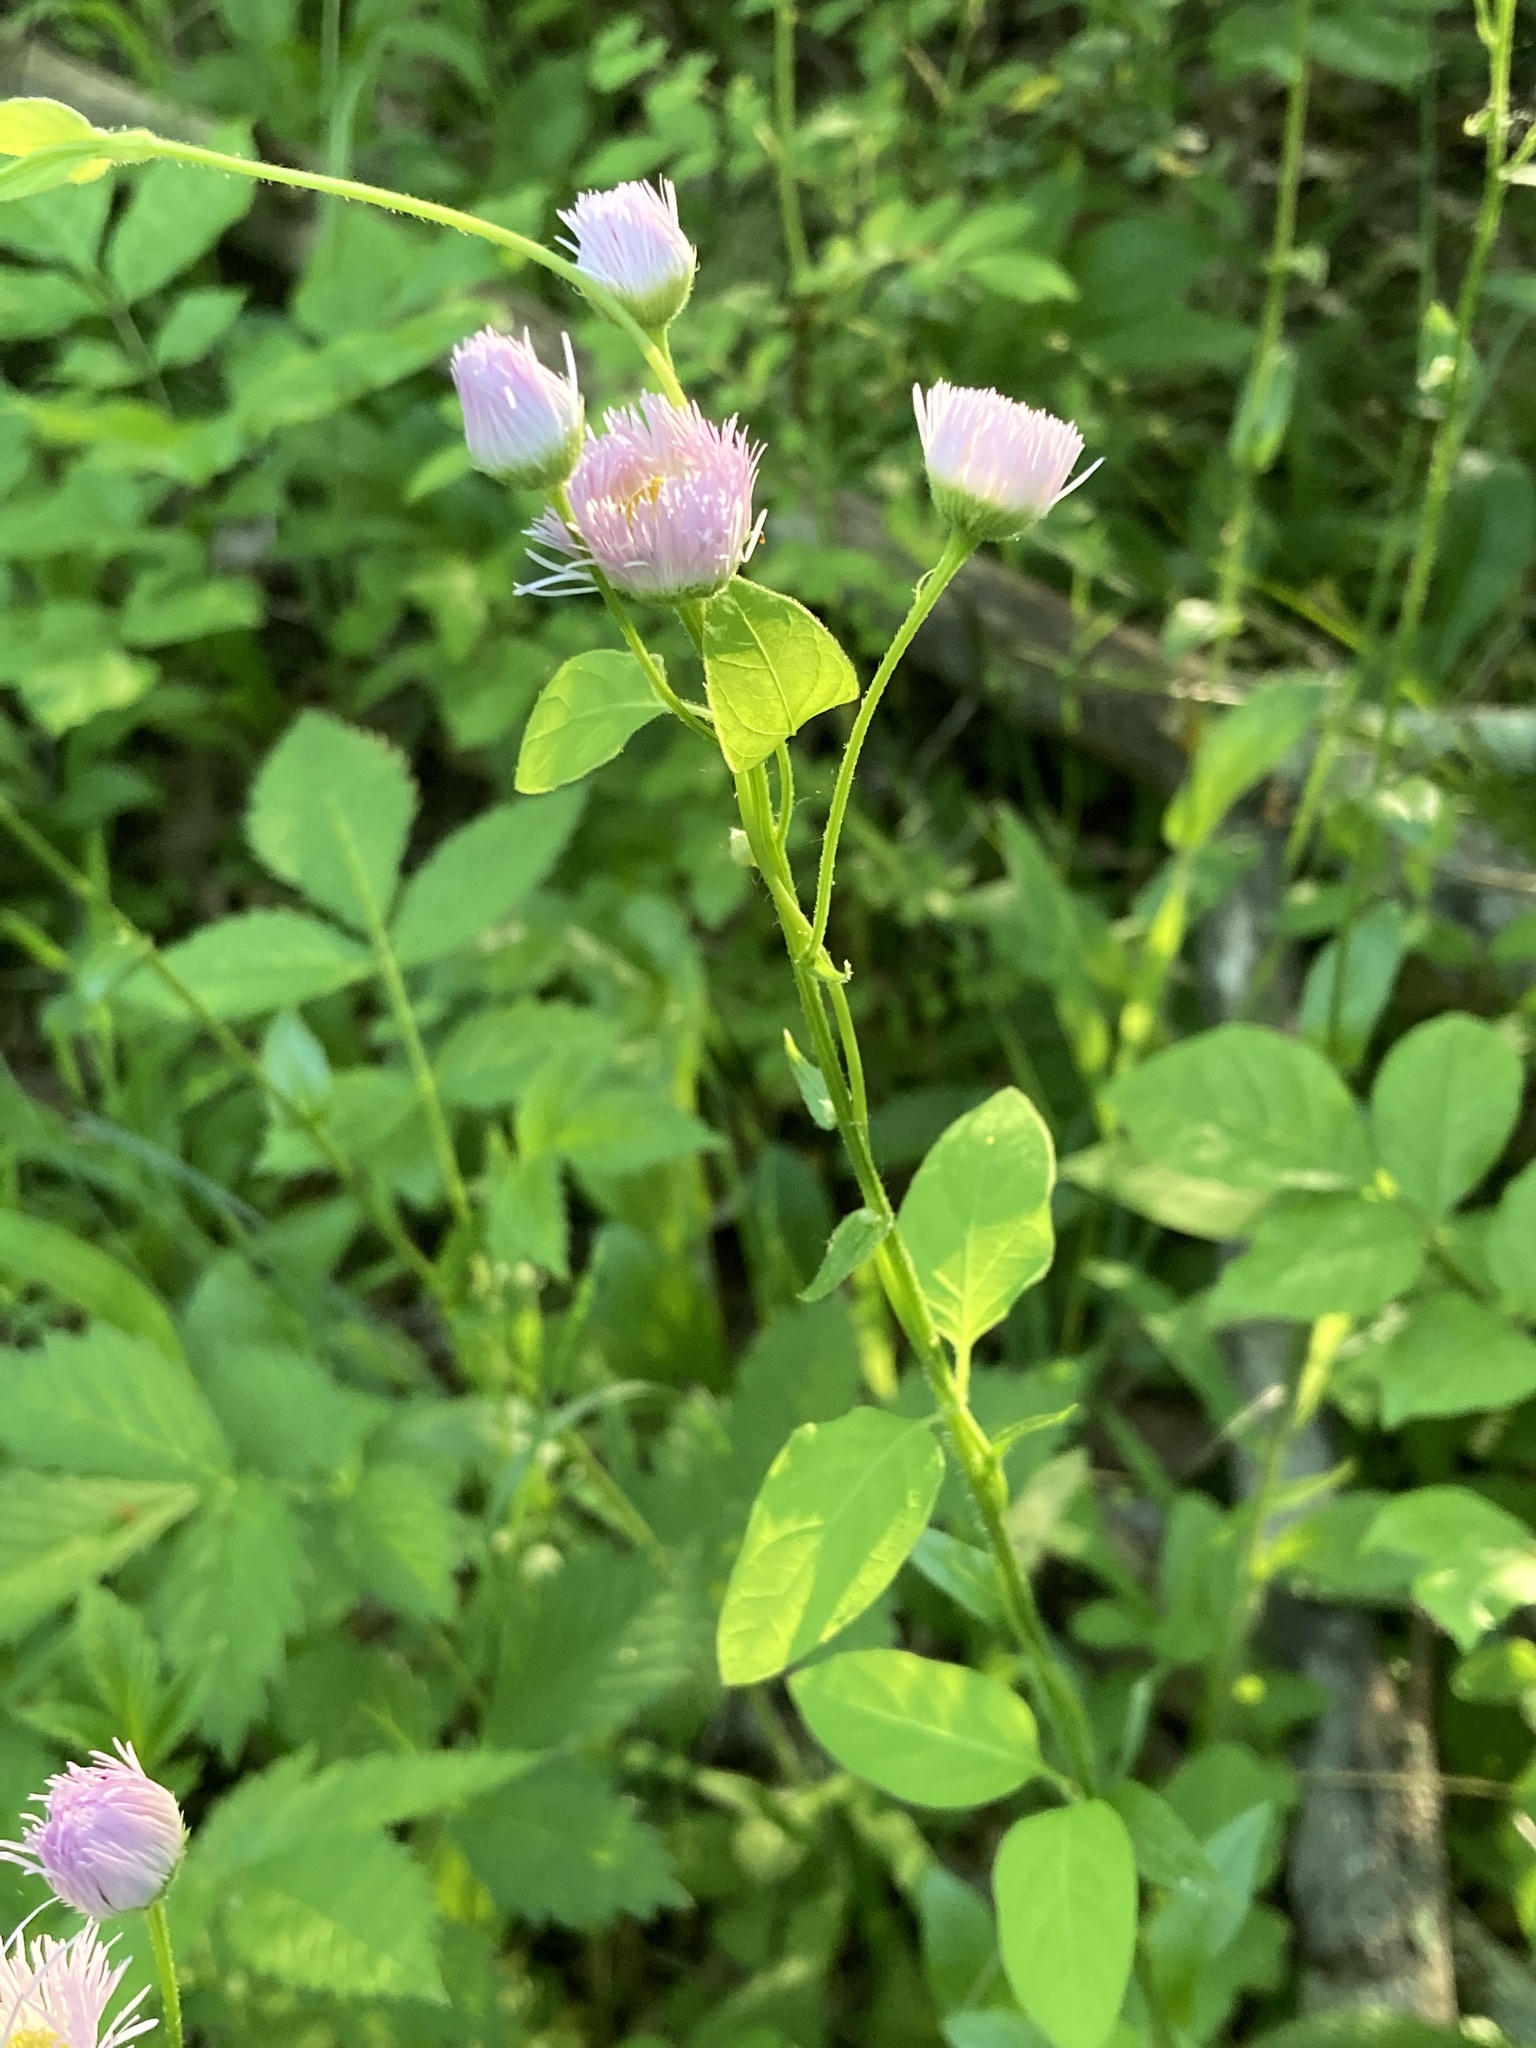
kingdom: Plantae
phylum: Tracheophyta
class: Magnoliopsida
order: Asterales
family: Asteraceae
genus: Erigeron
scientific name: Erigeron philadelphicus
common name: Robin's-plantain
